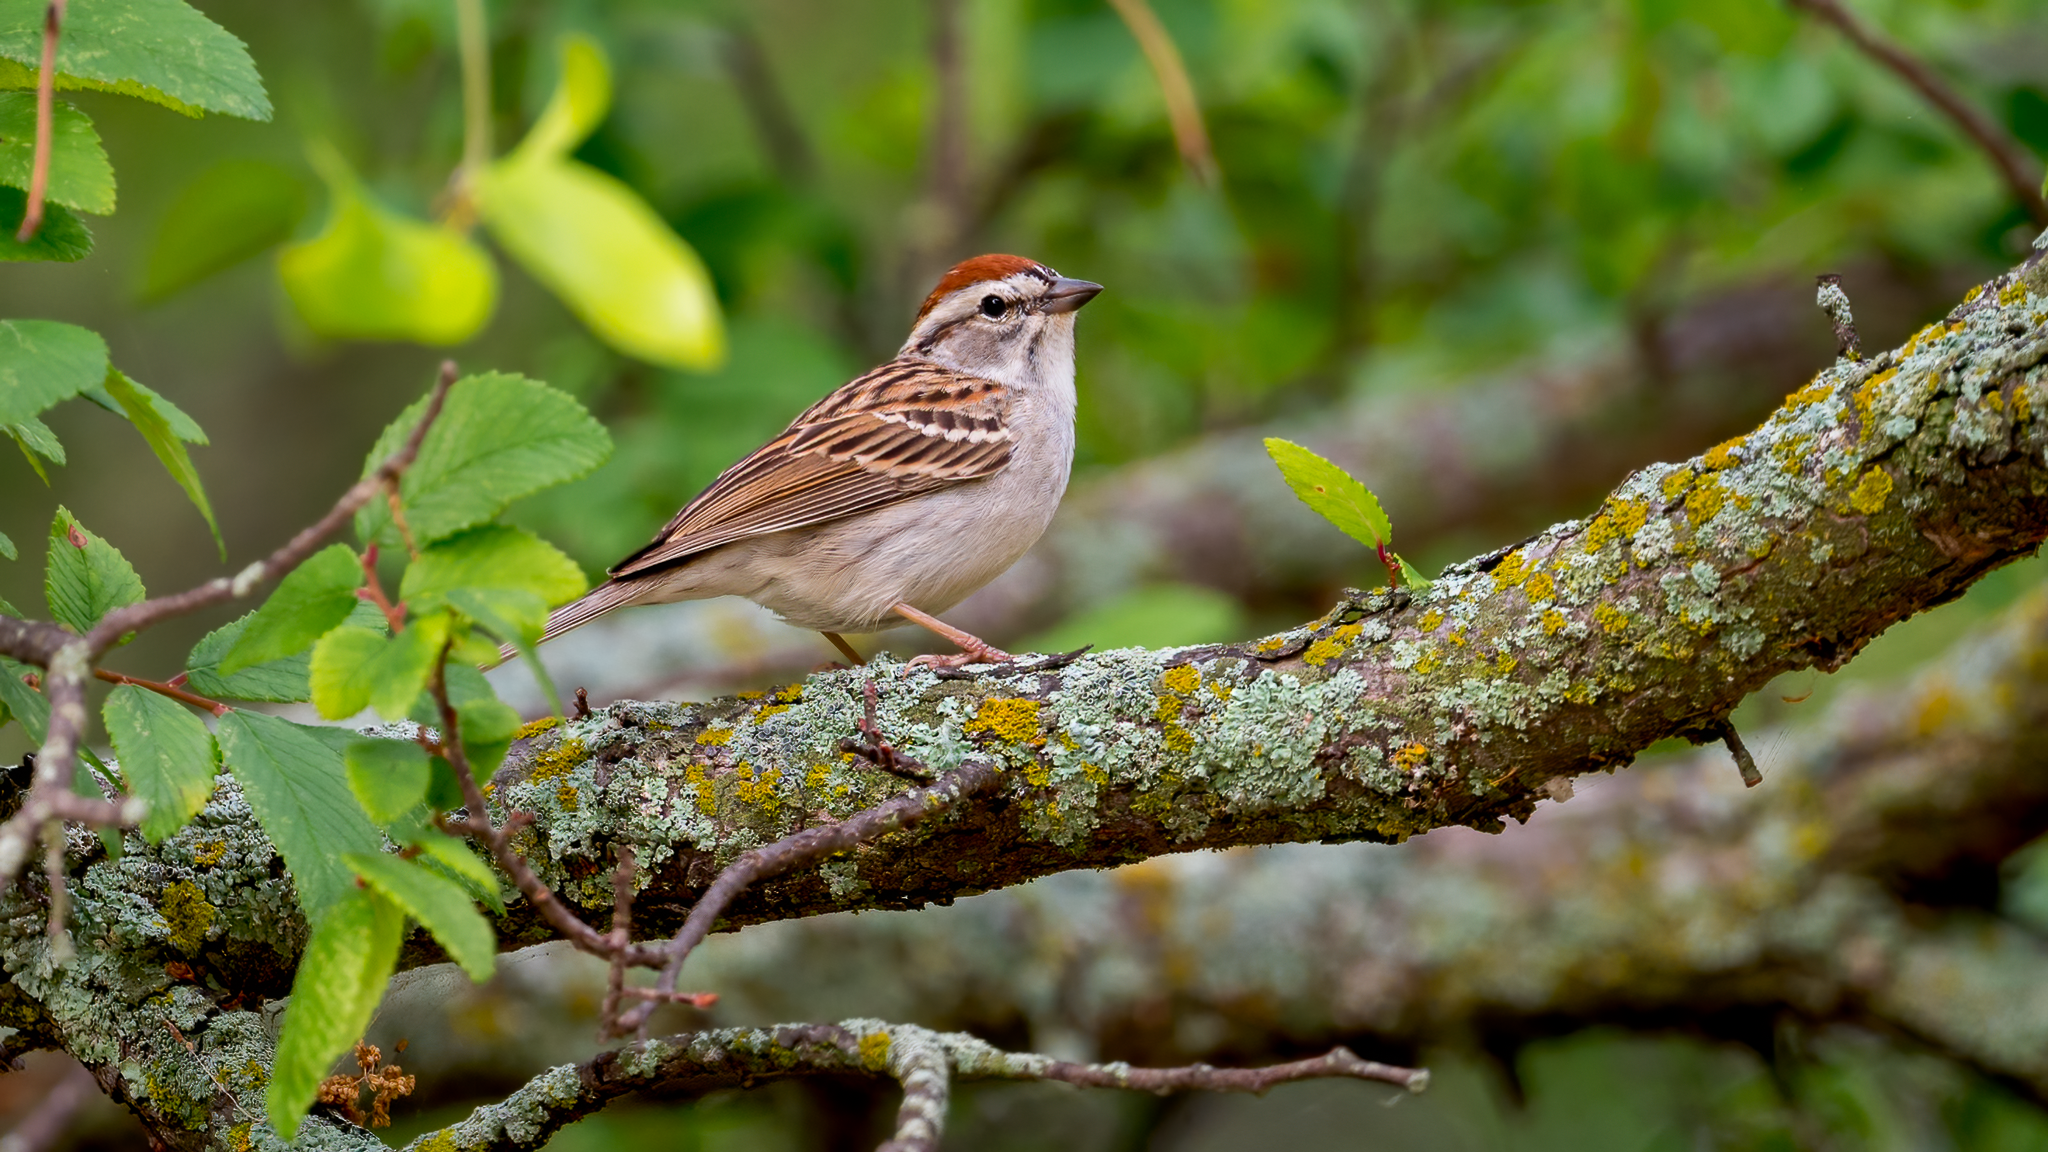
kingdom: Animalia
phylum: Chordata
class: Aves
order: Passeriformes
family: Passerellidae
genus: Spizella
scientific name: Spizella passerina
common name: Chipping sparrow
